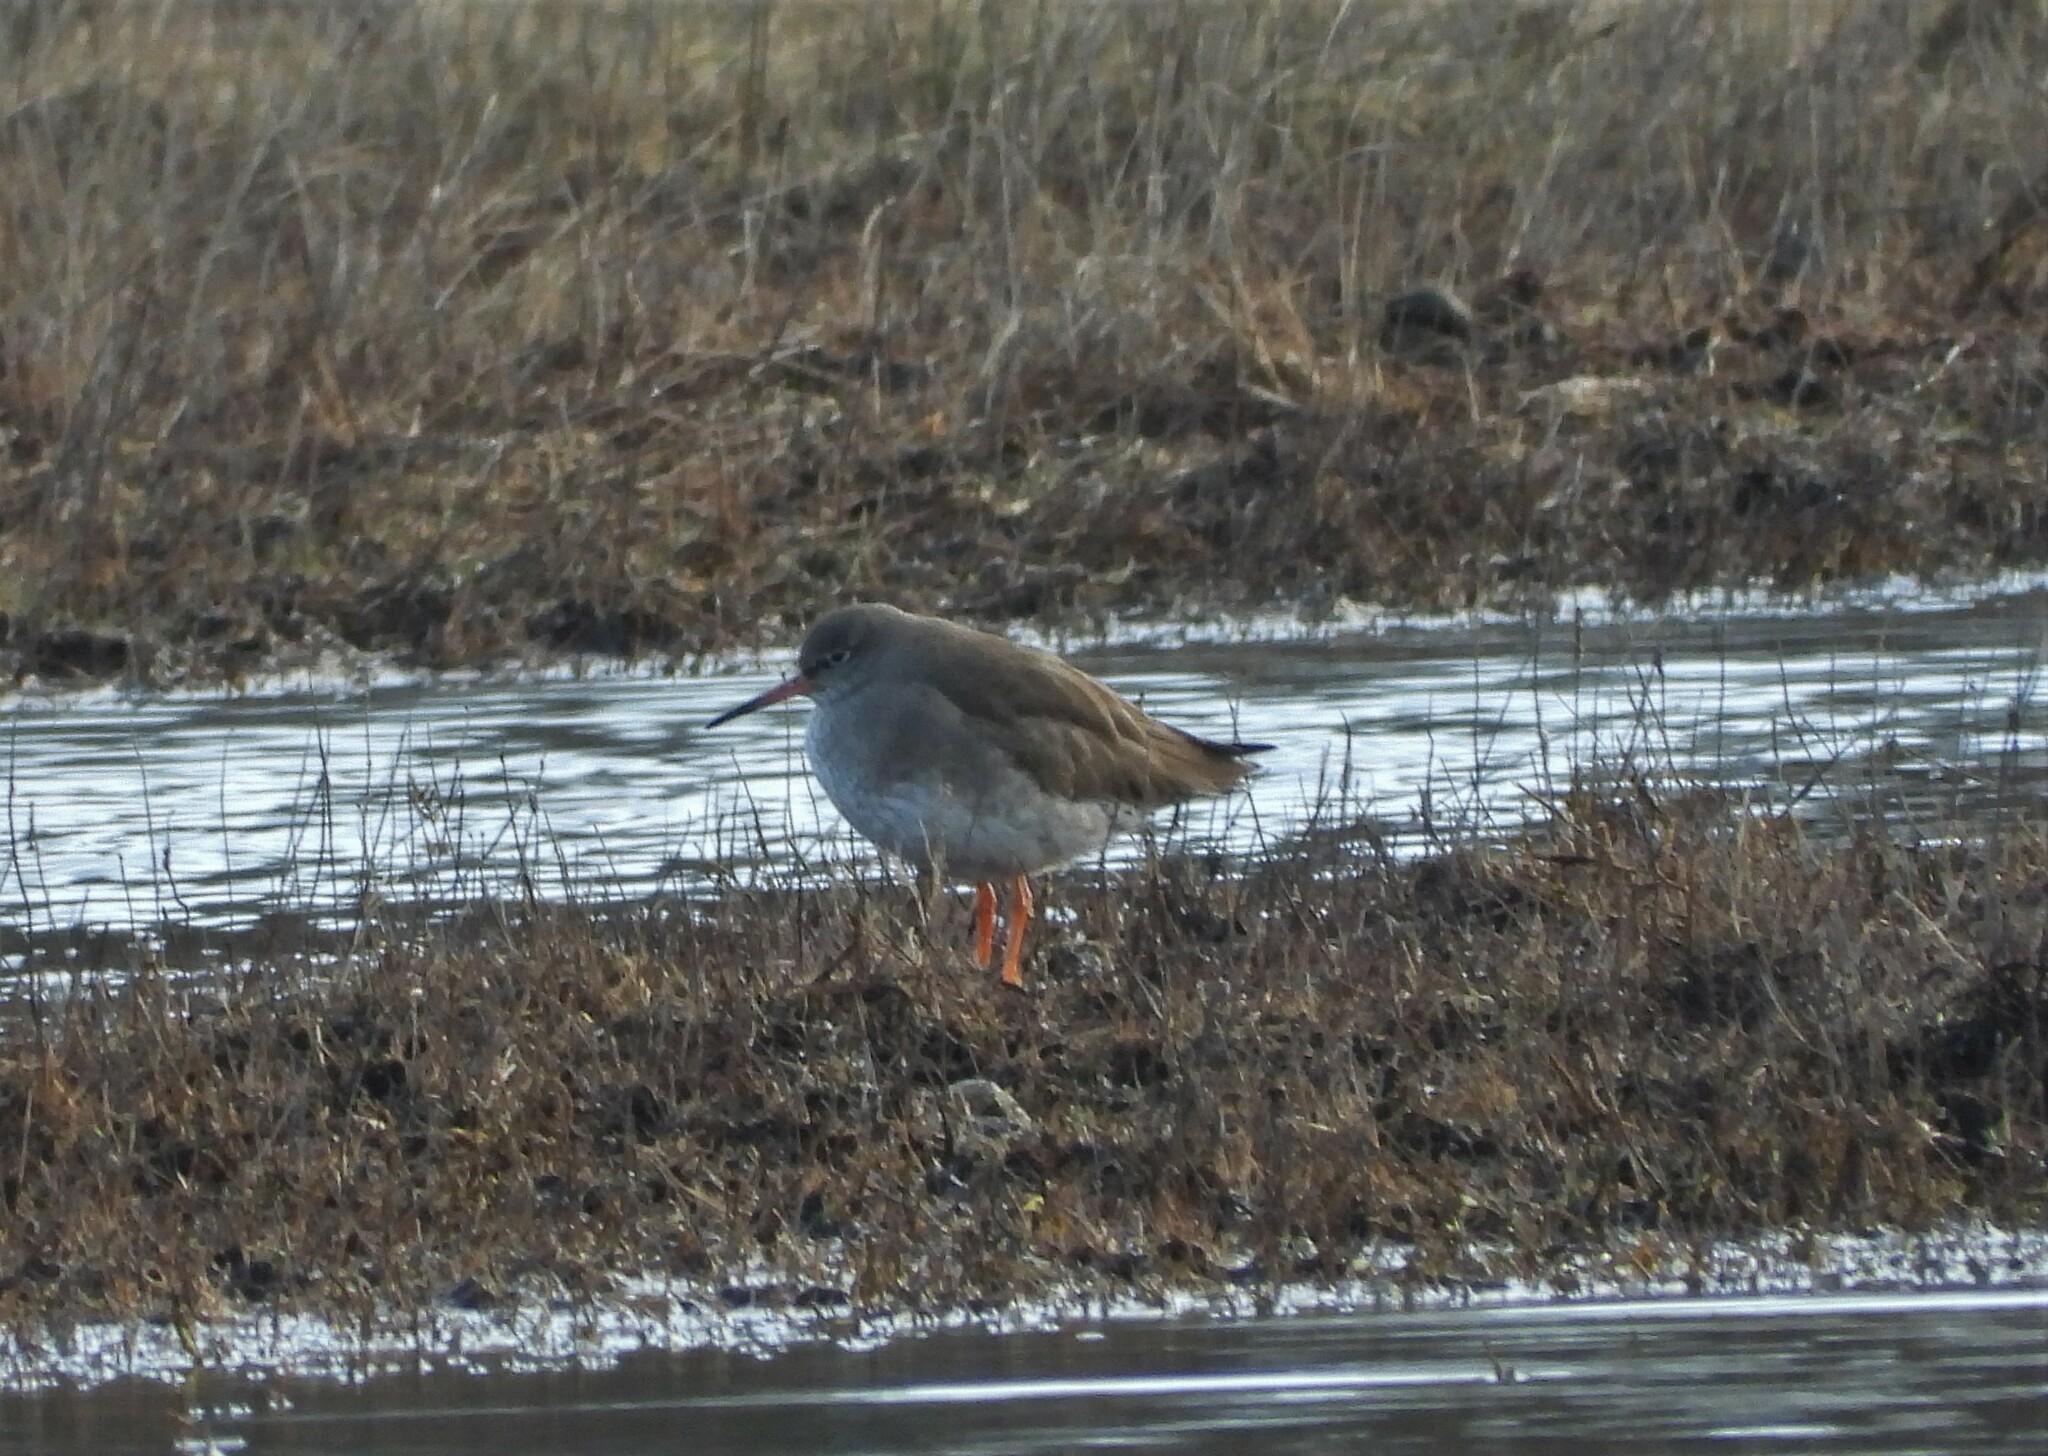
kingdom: Animalia
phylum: Chordata
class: Aves
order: Charadriiformes
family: Scolopacidae
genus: Tringa
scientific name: Tringa totanus
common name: Common redshank
